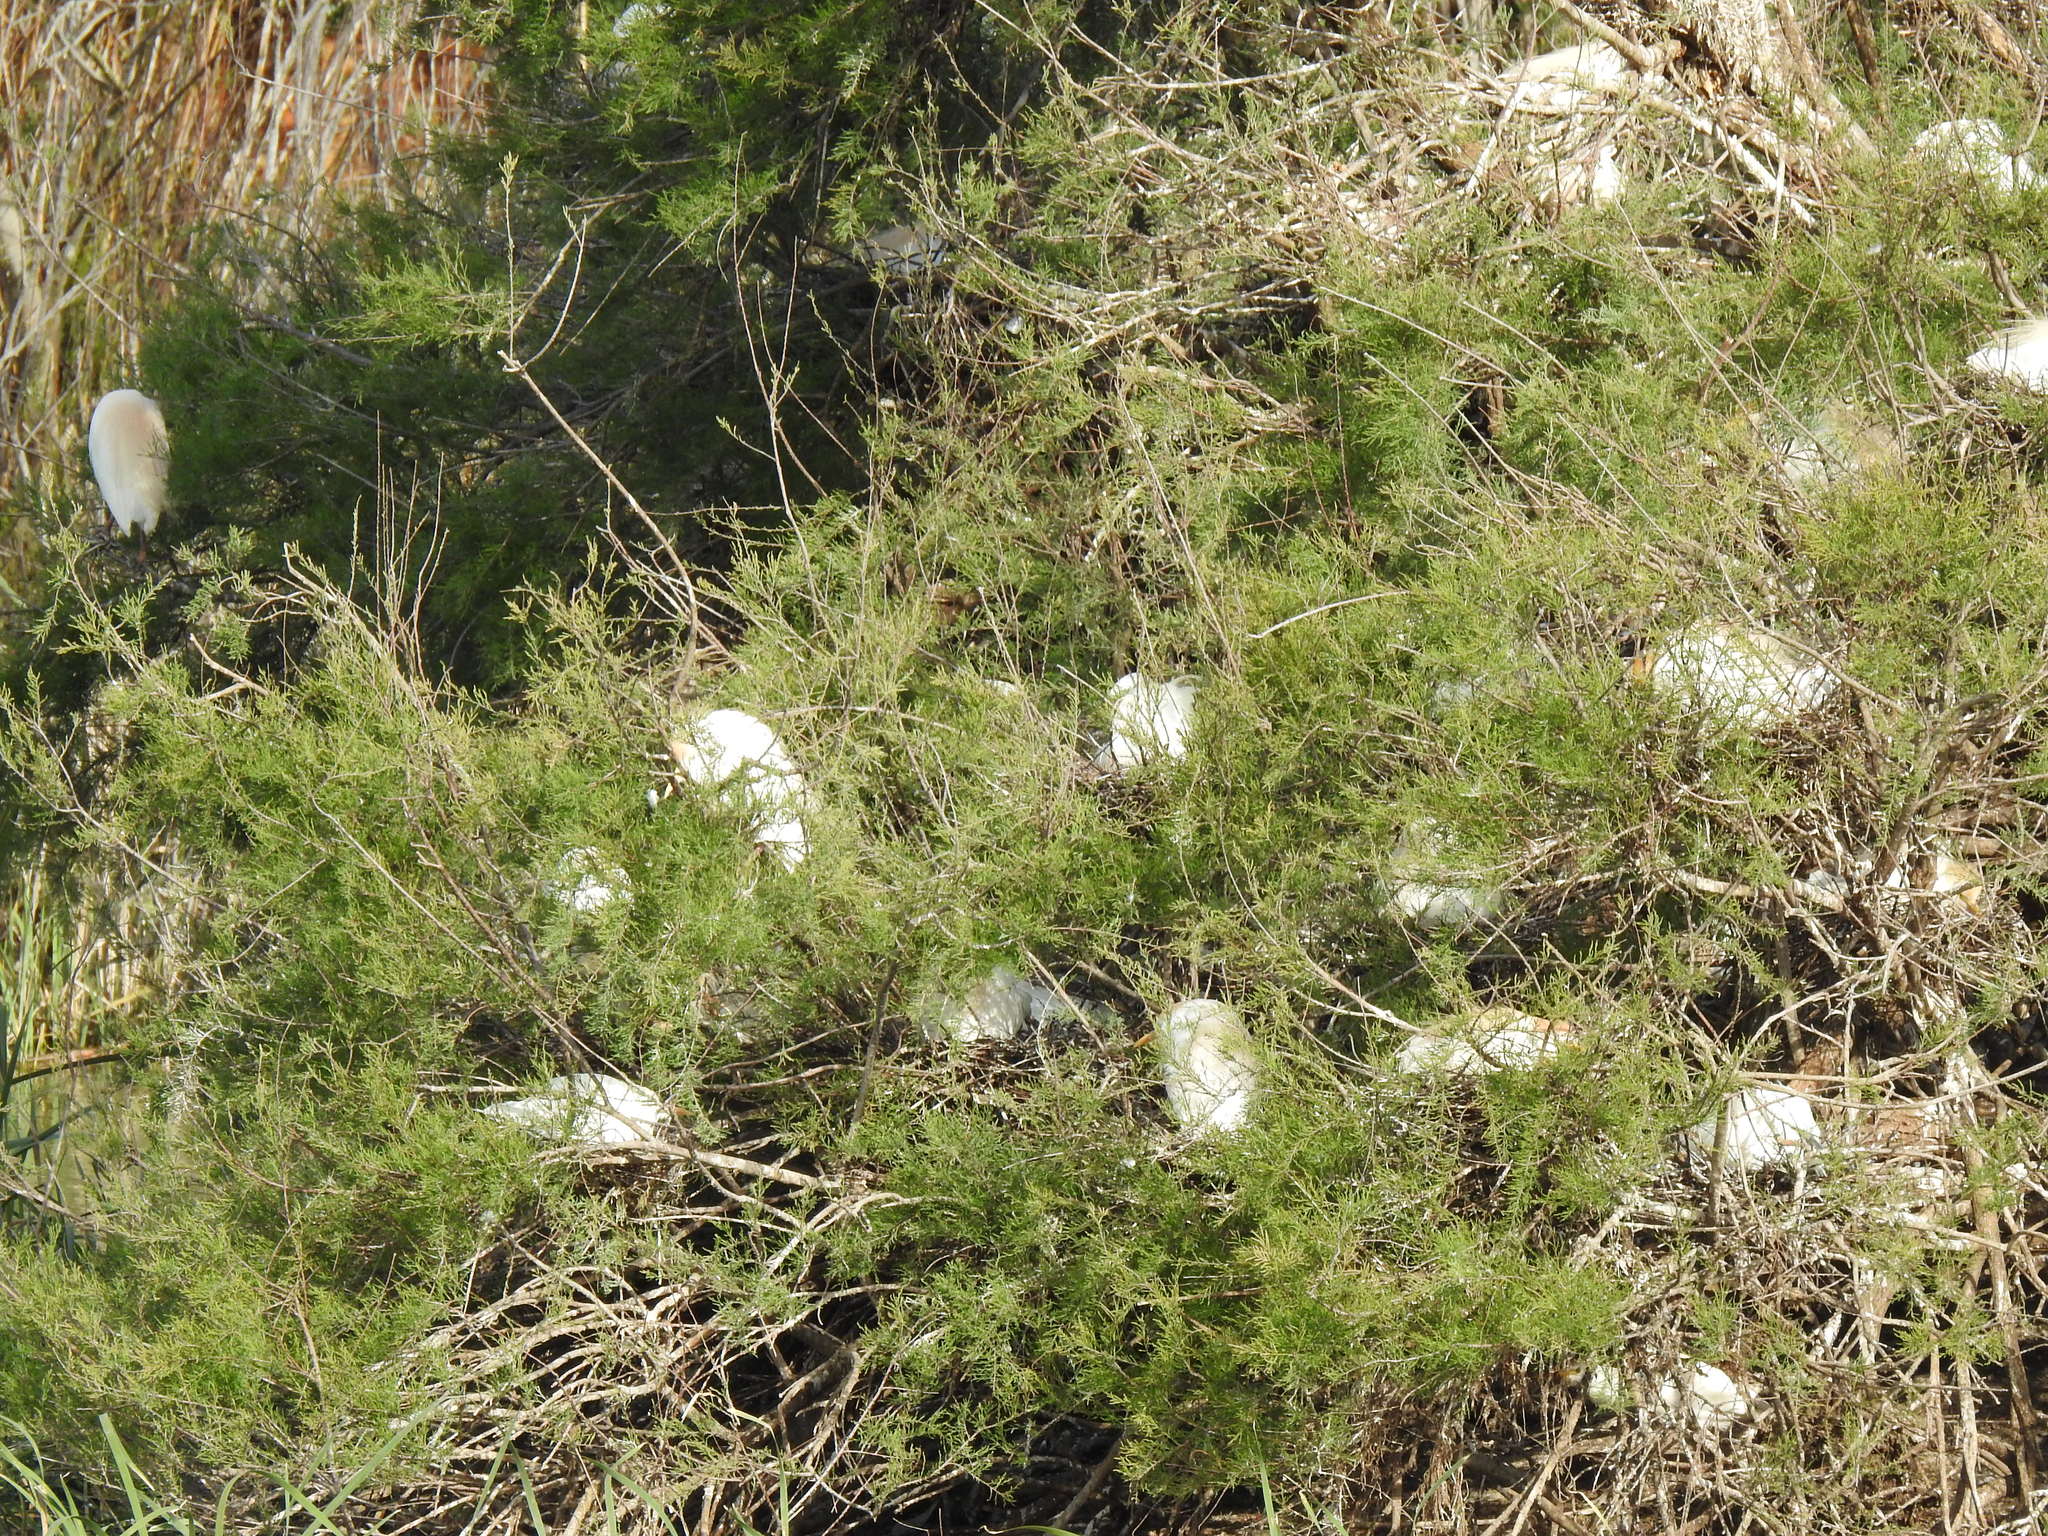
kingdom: Animalia
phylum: Chordata
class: Aves
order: Pelecaniformes
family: Ardeidae
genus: Bubulcus
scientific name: Bubulcus ibis
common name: Cattle egret
